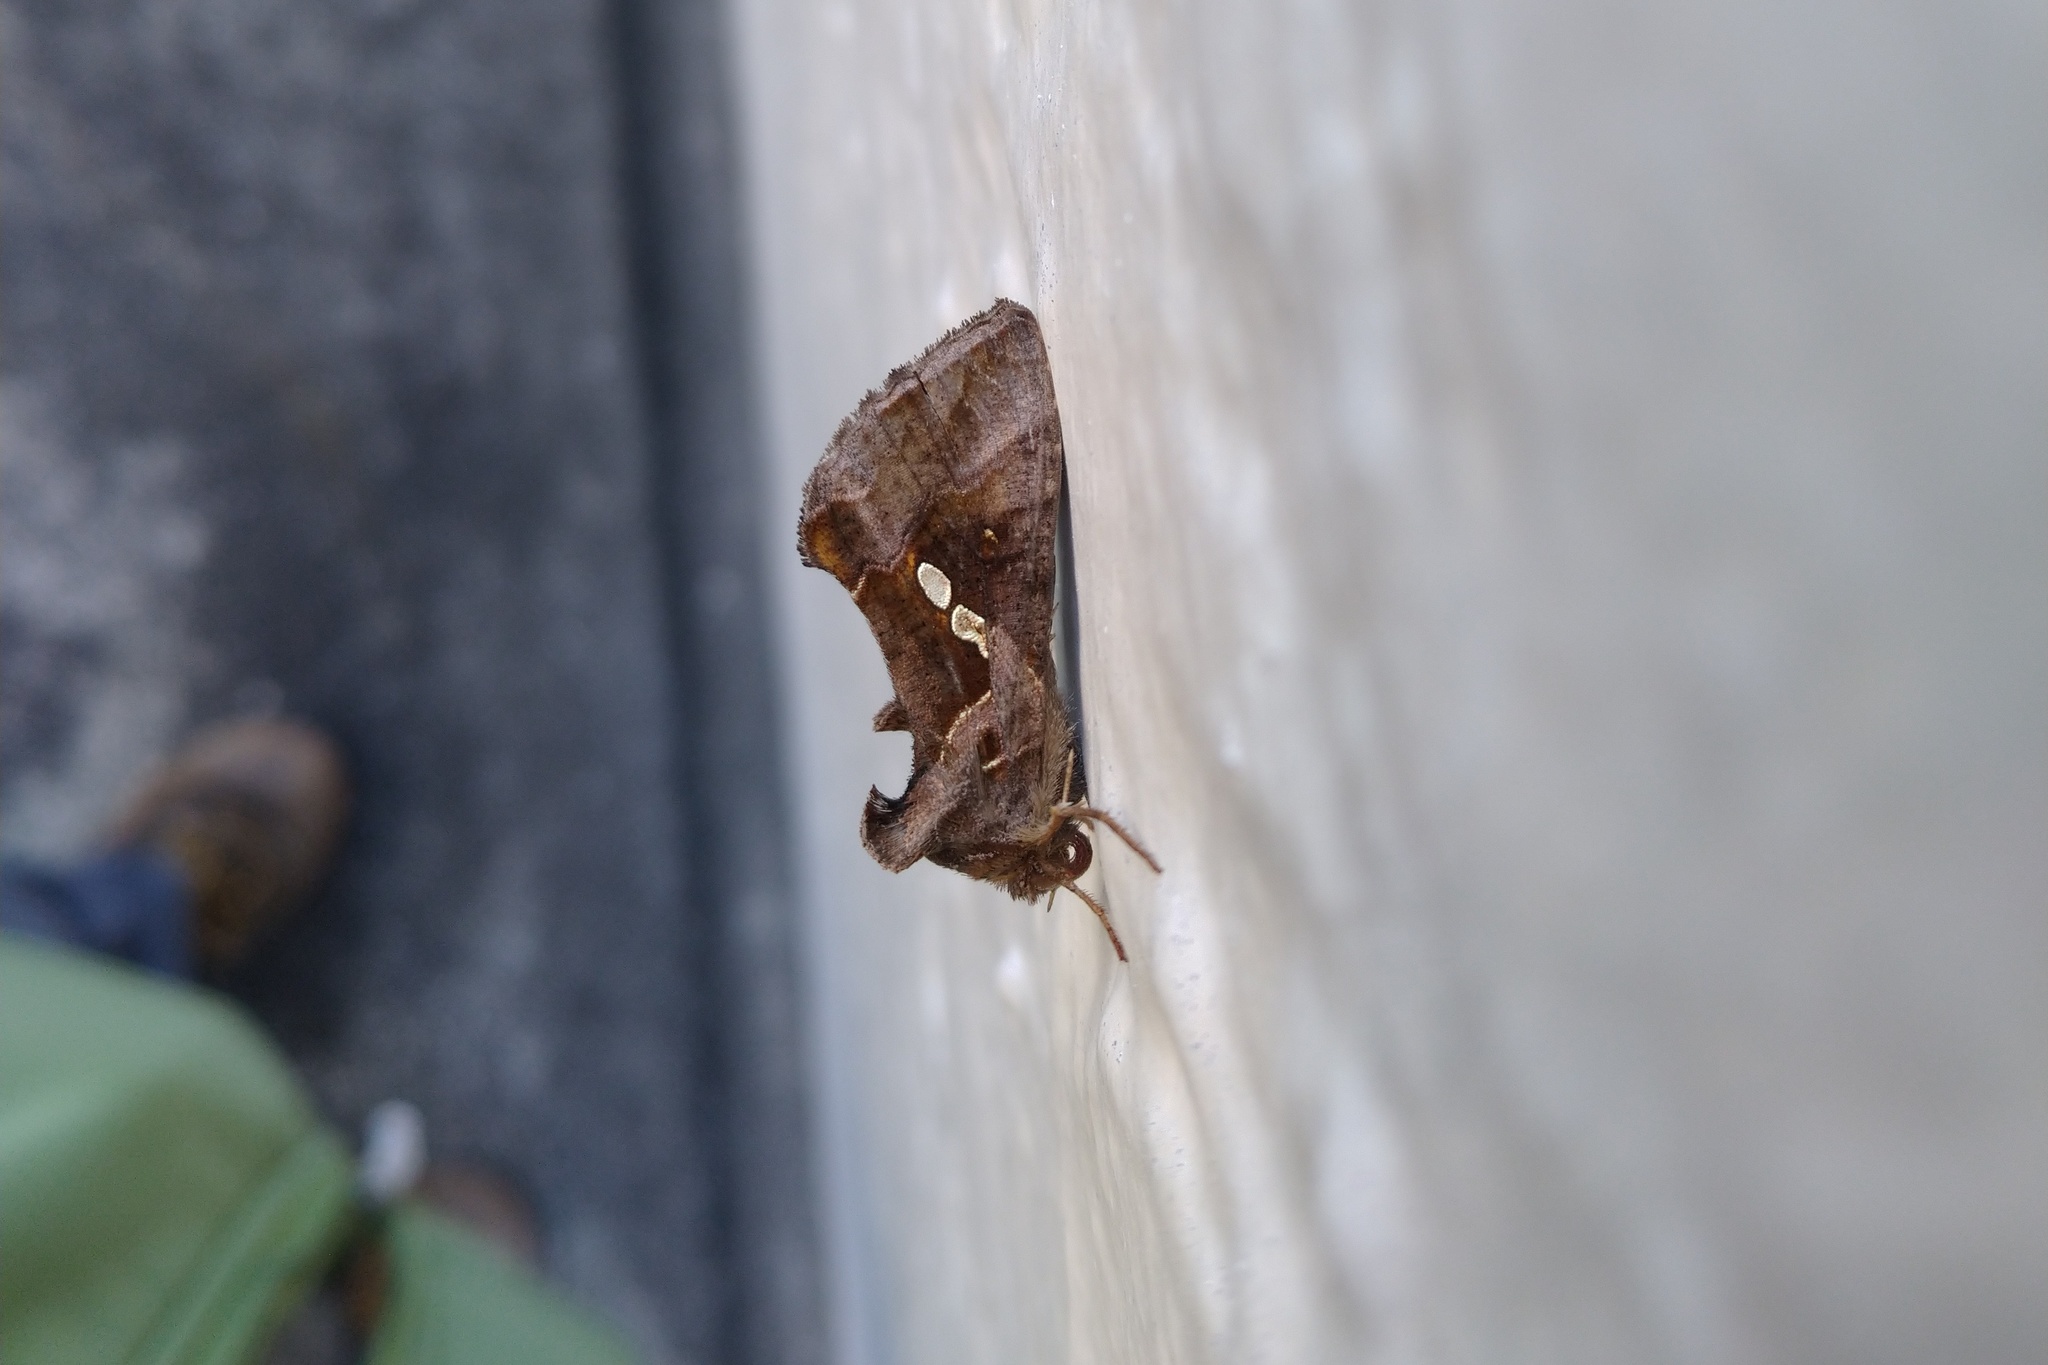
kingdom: Animalia
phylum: Arthropoda
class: Insecta
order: Lepidoptera
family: Noctuidae
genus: Chrysodeixis
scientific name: Chrysodeixis eriosoma
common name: Green garden looper
